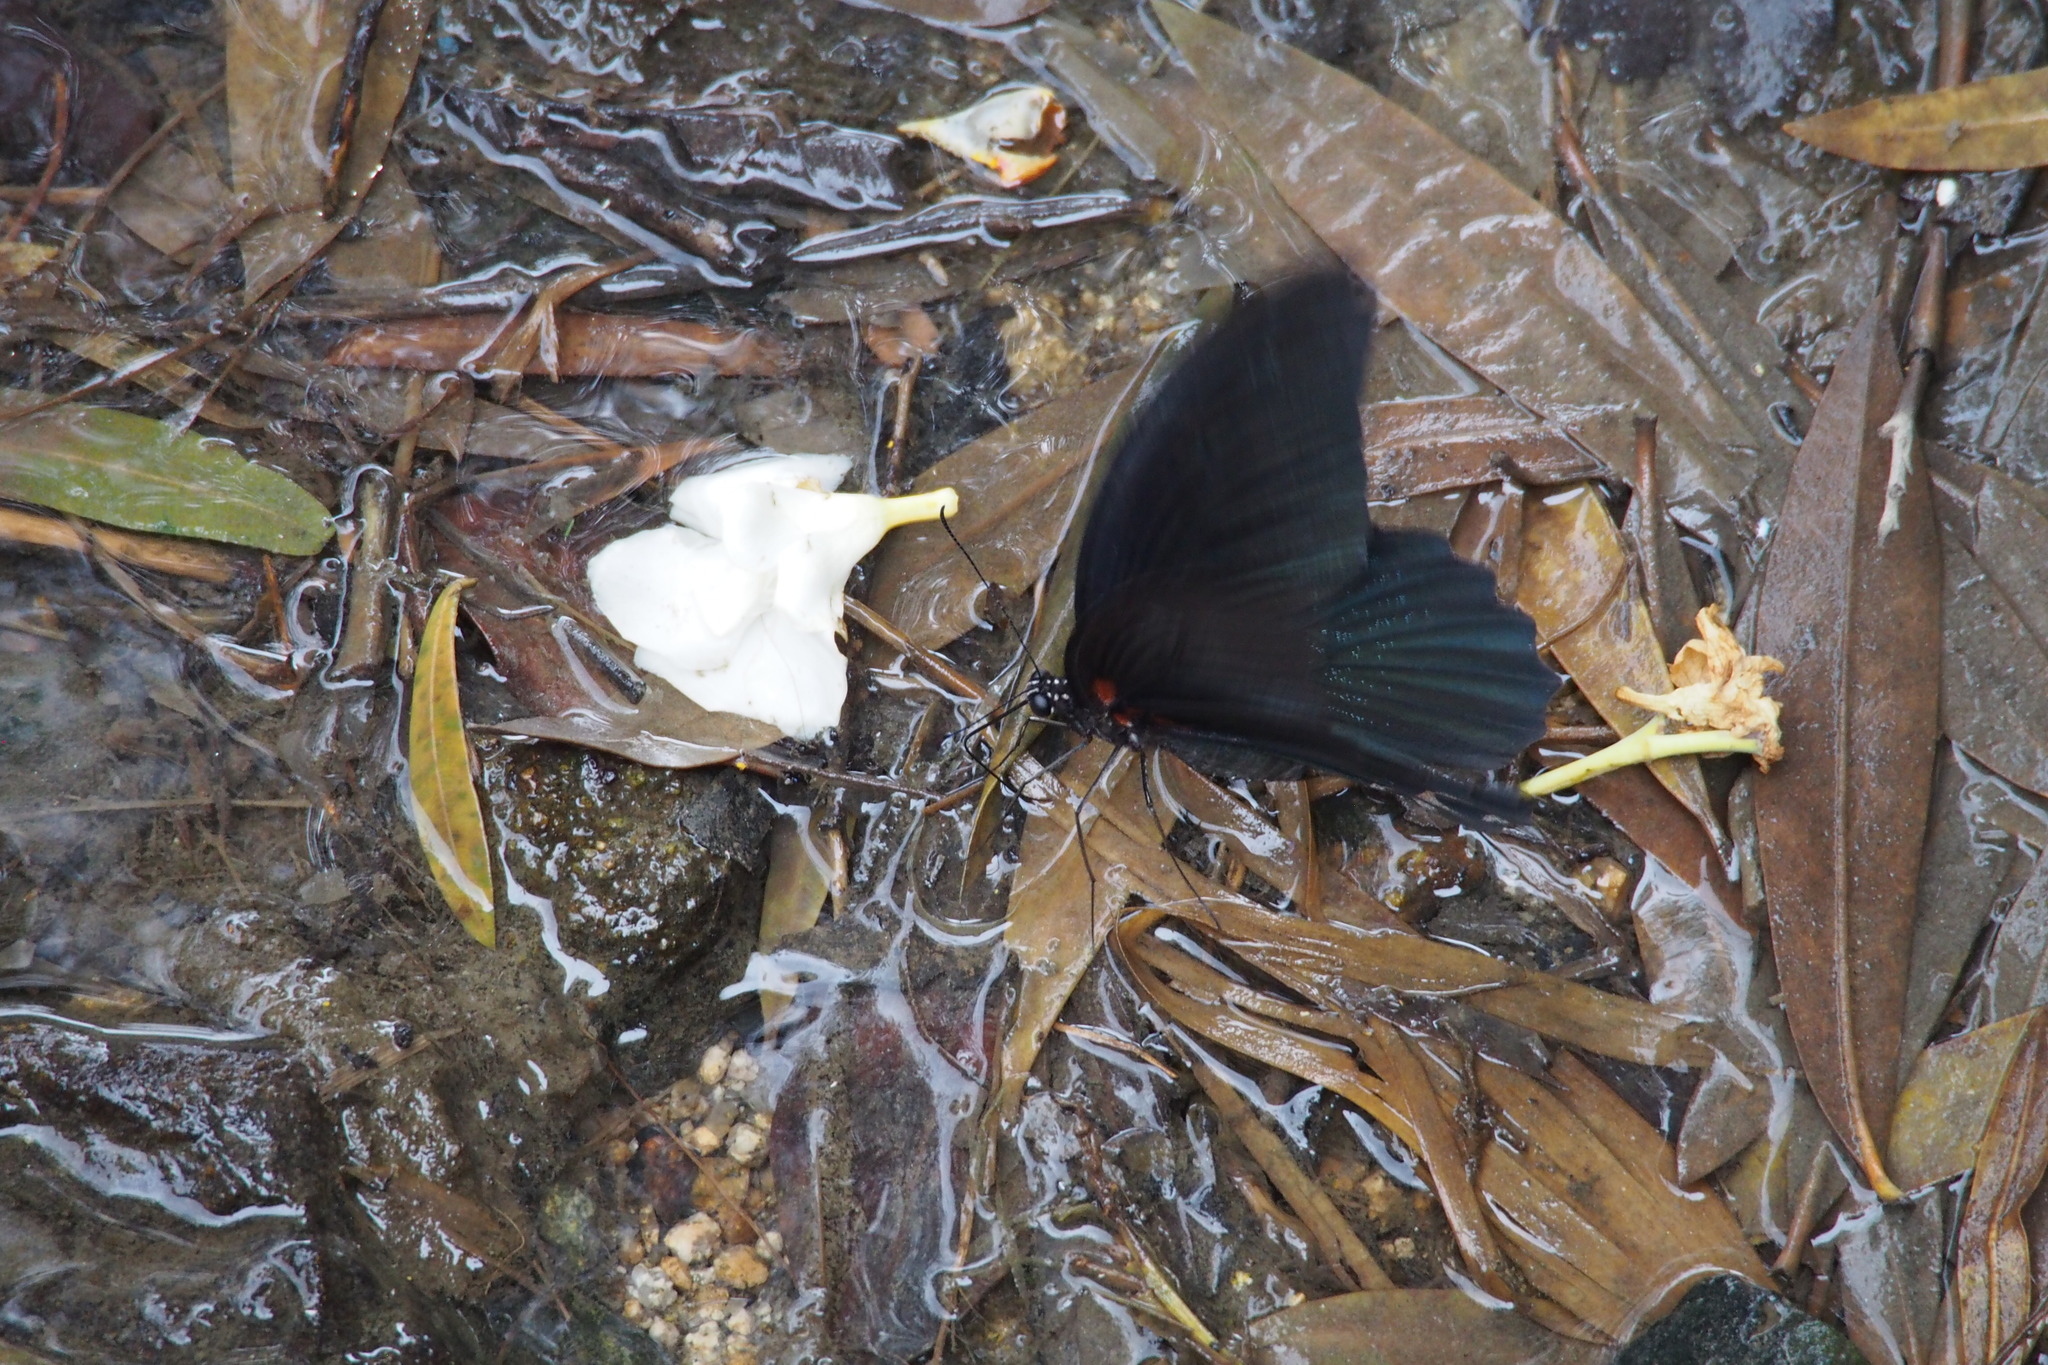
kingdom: Animalia
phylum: Arthropoda
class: Insecta
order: Lepidoptera
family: Papilionidae
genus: Papilio
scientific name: Papilio memnon
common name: Great mormon
